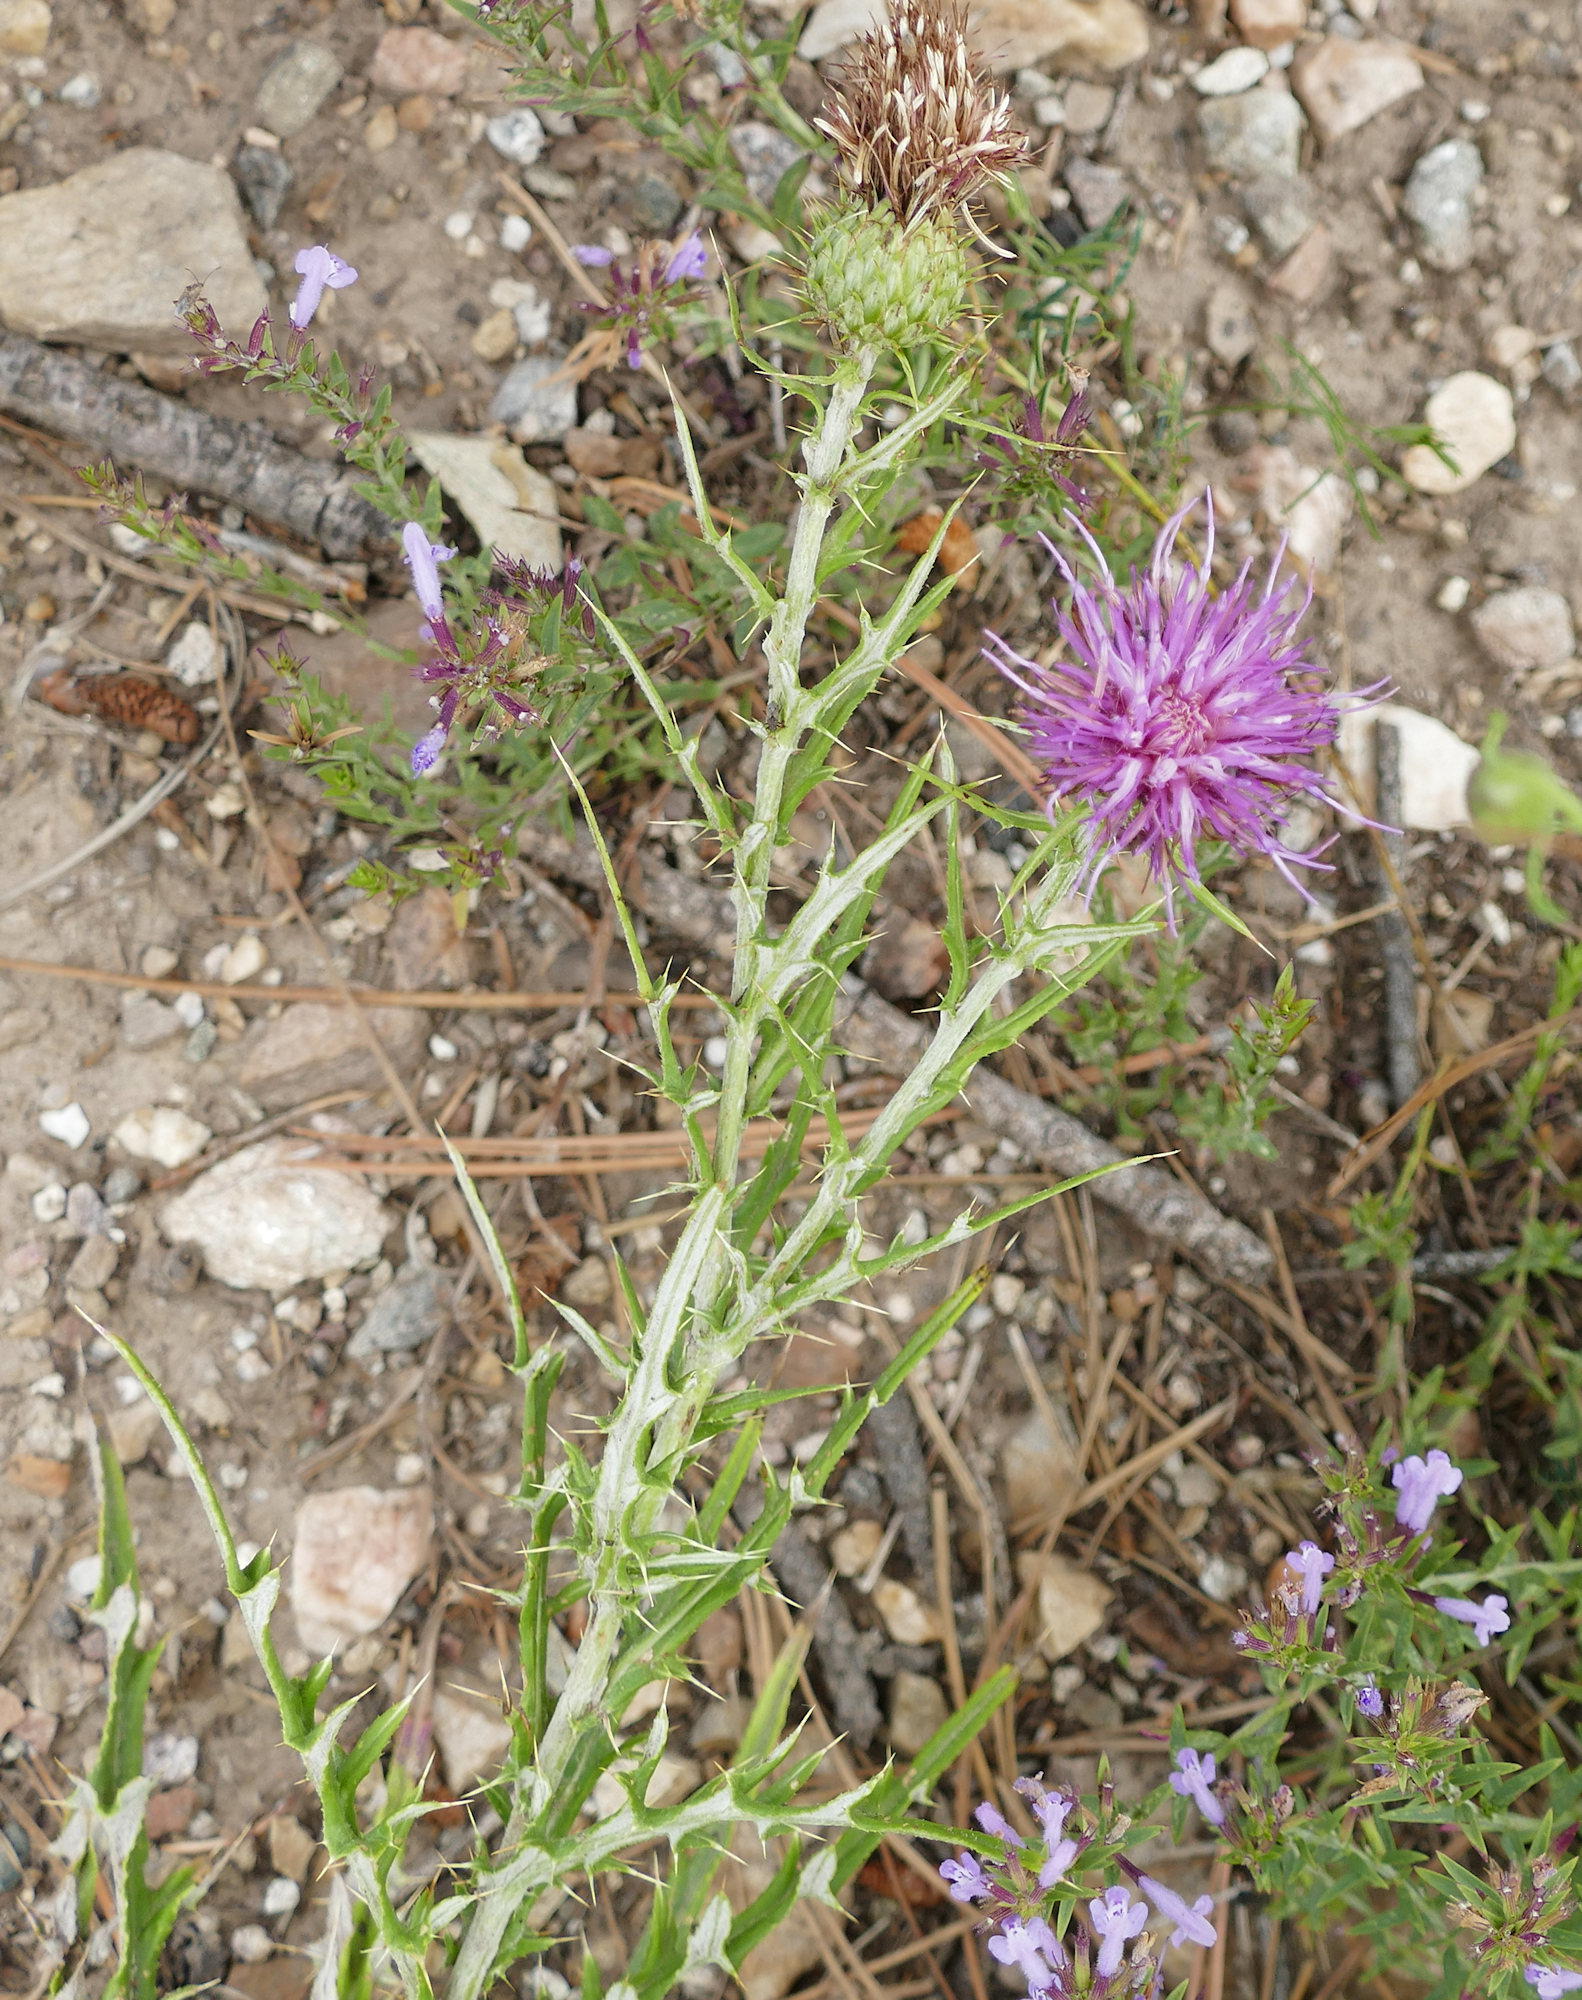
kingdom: Plantae
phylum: Tracheophyta
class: Magnoliopsida
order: Asterales
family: Asteraceae
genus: Cirsium
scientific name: Cirsium wheeleri
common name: Wheeler's thistle
